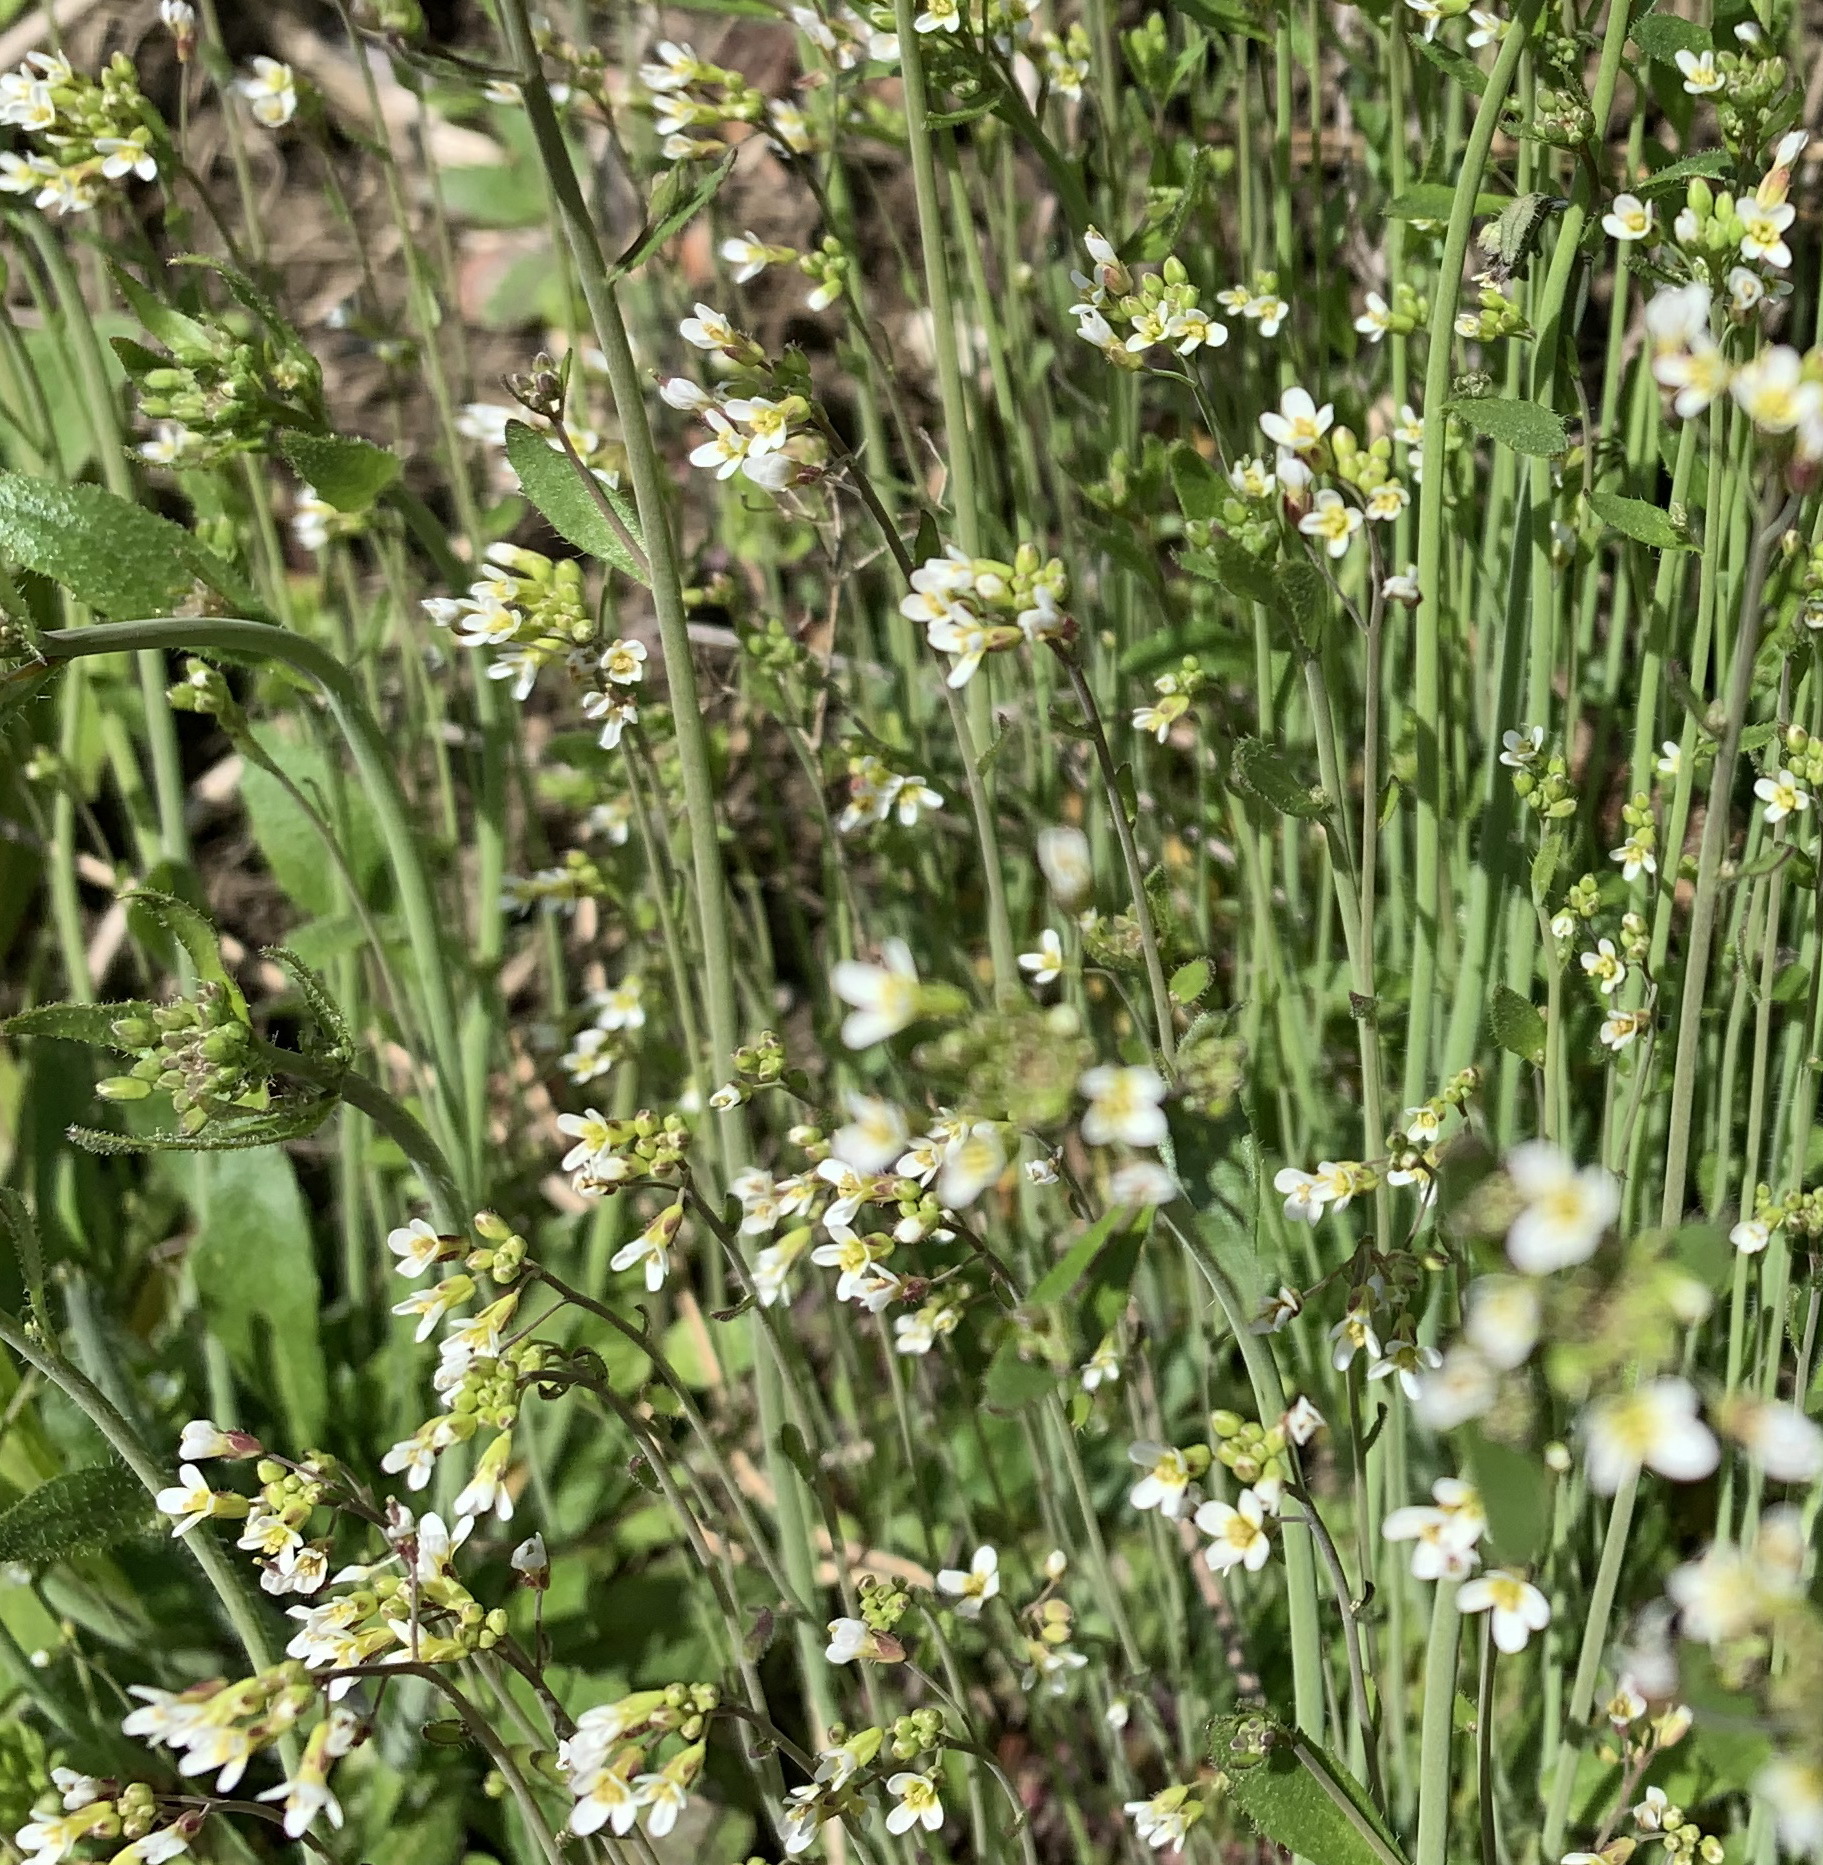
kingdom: Plantae
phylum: Tracheophyta
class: Magnoliopsida
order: Brassicales
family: Brassicaceae
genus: Arabidopsis
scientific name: Arabidopsis thaliana
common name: Thale cress
